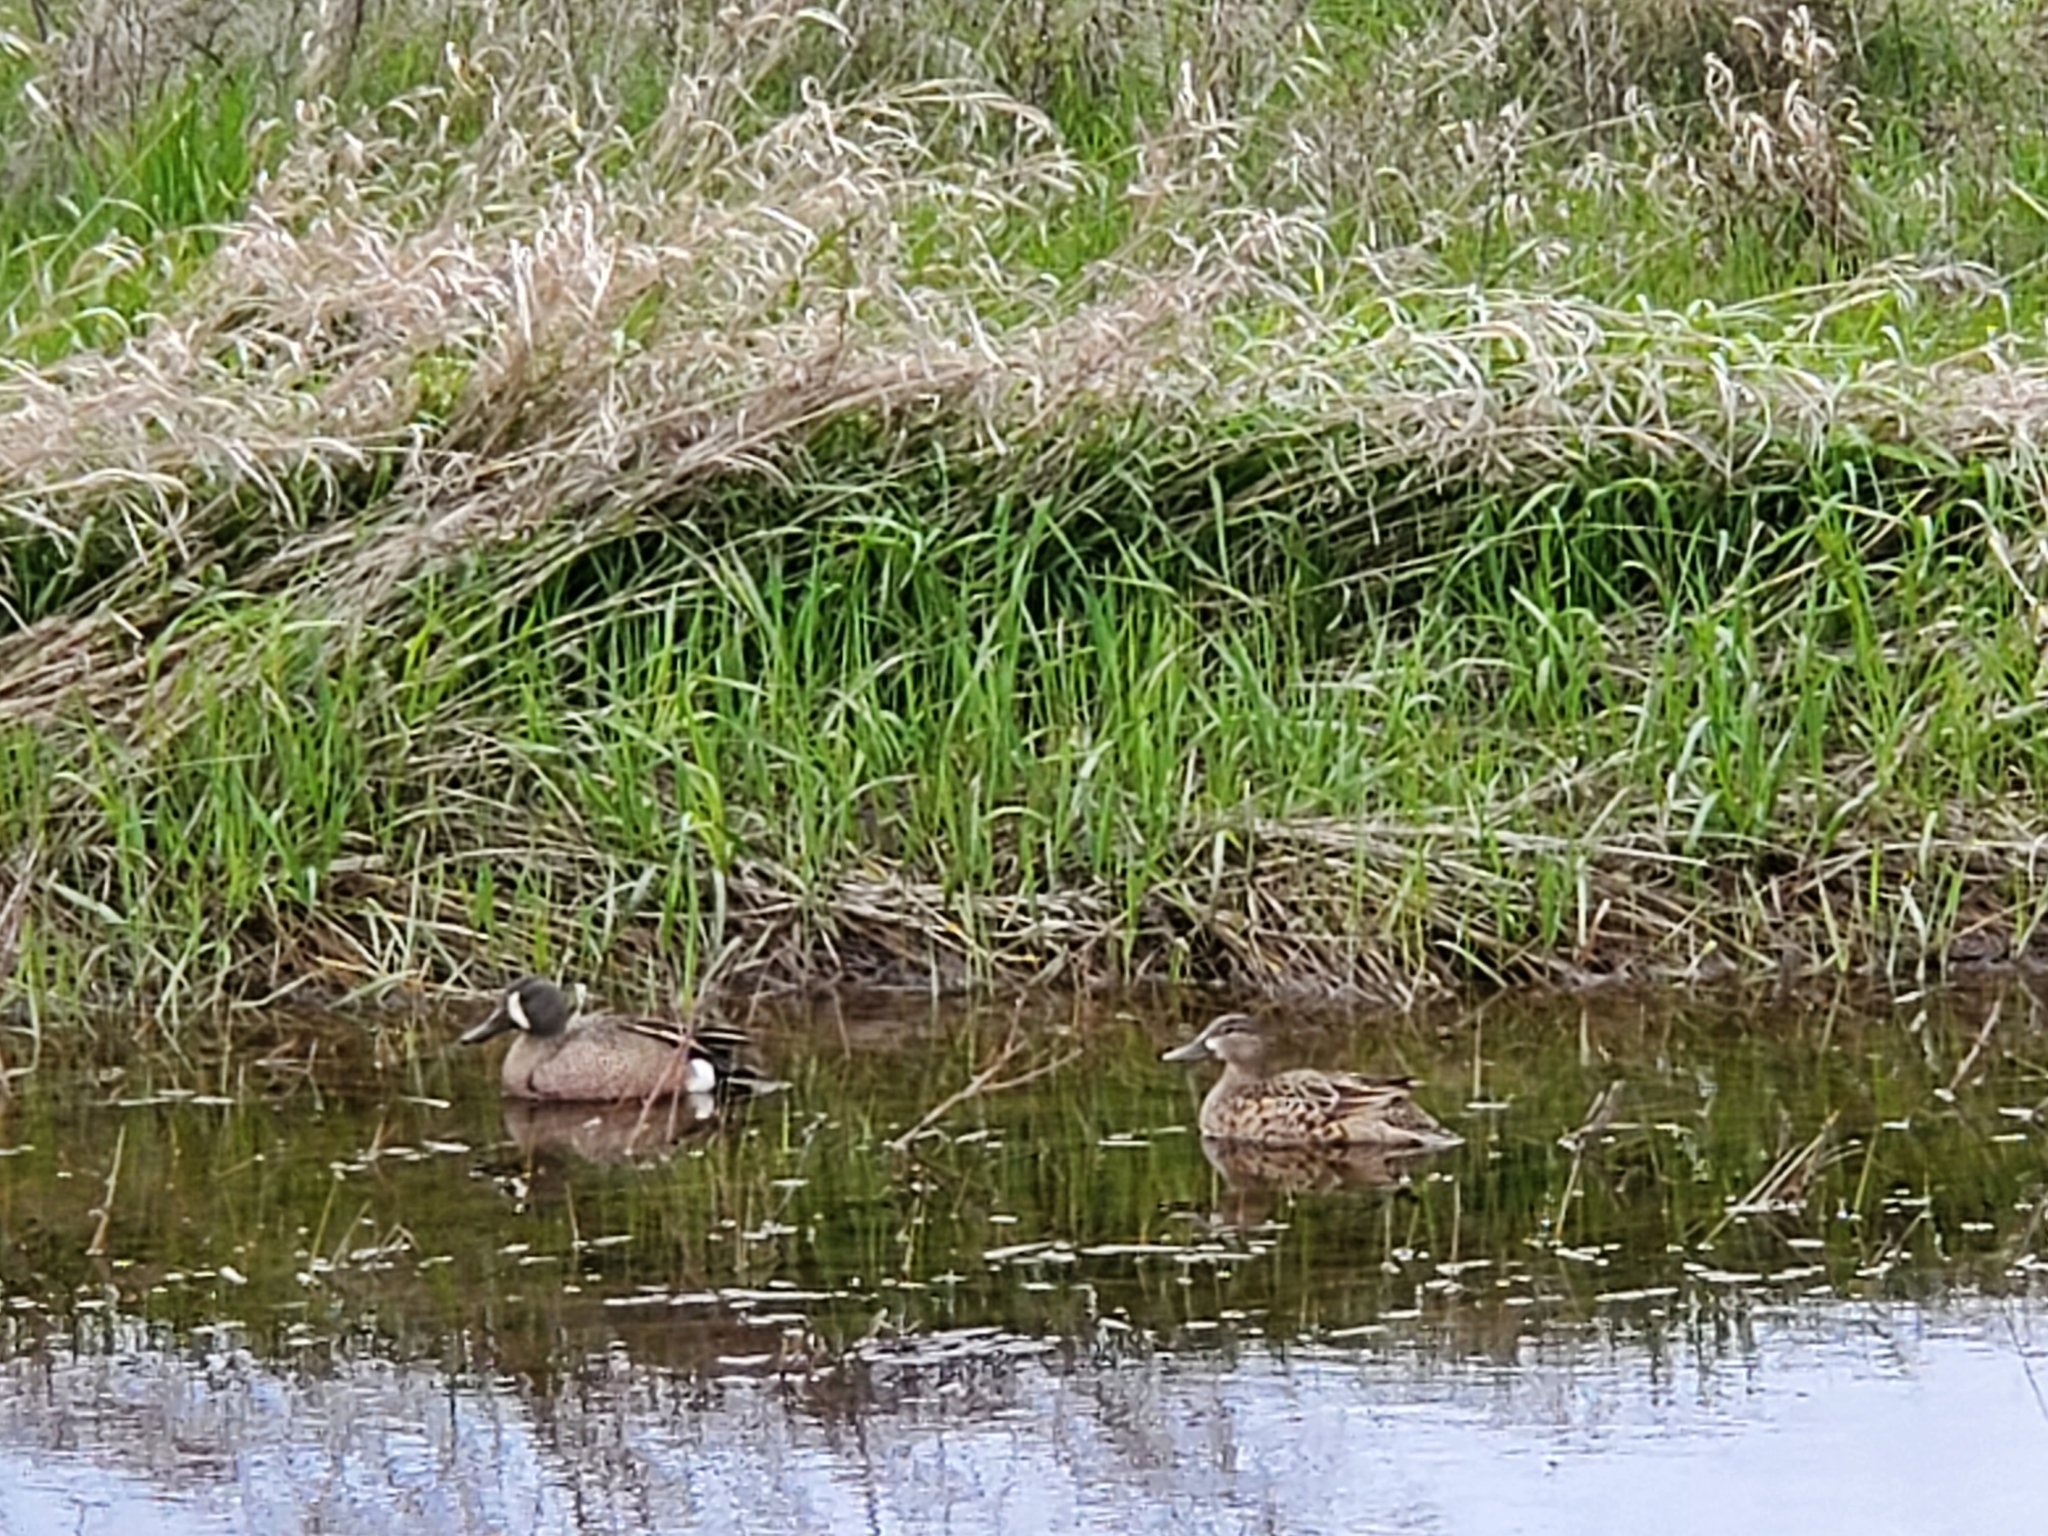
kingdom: Animalia
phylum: Chordata
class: Aves
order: Anseriformes
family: Anatidae
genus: Spatula
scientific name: Spatula discors
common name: Blue-winged teal
